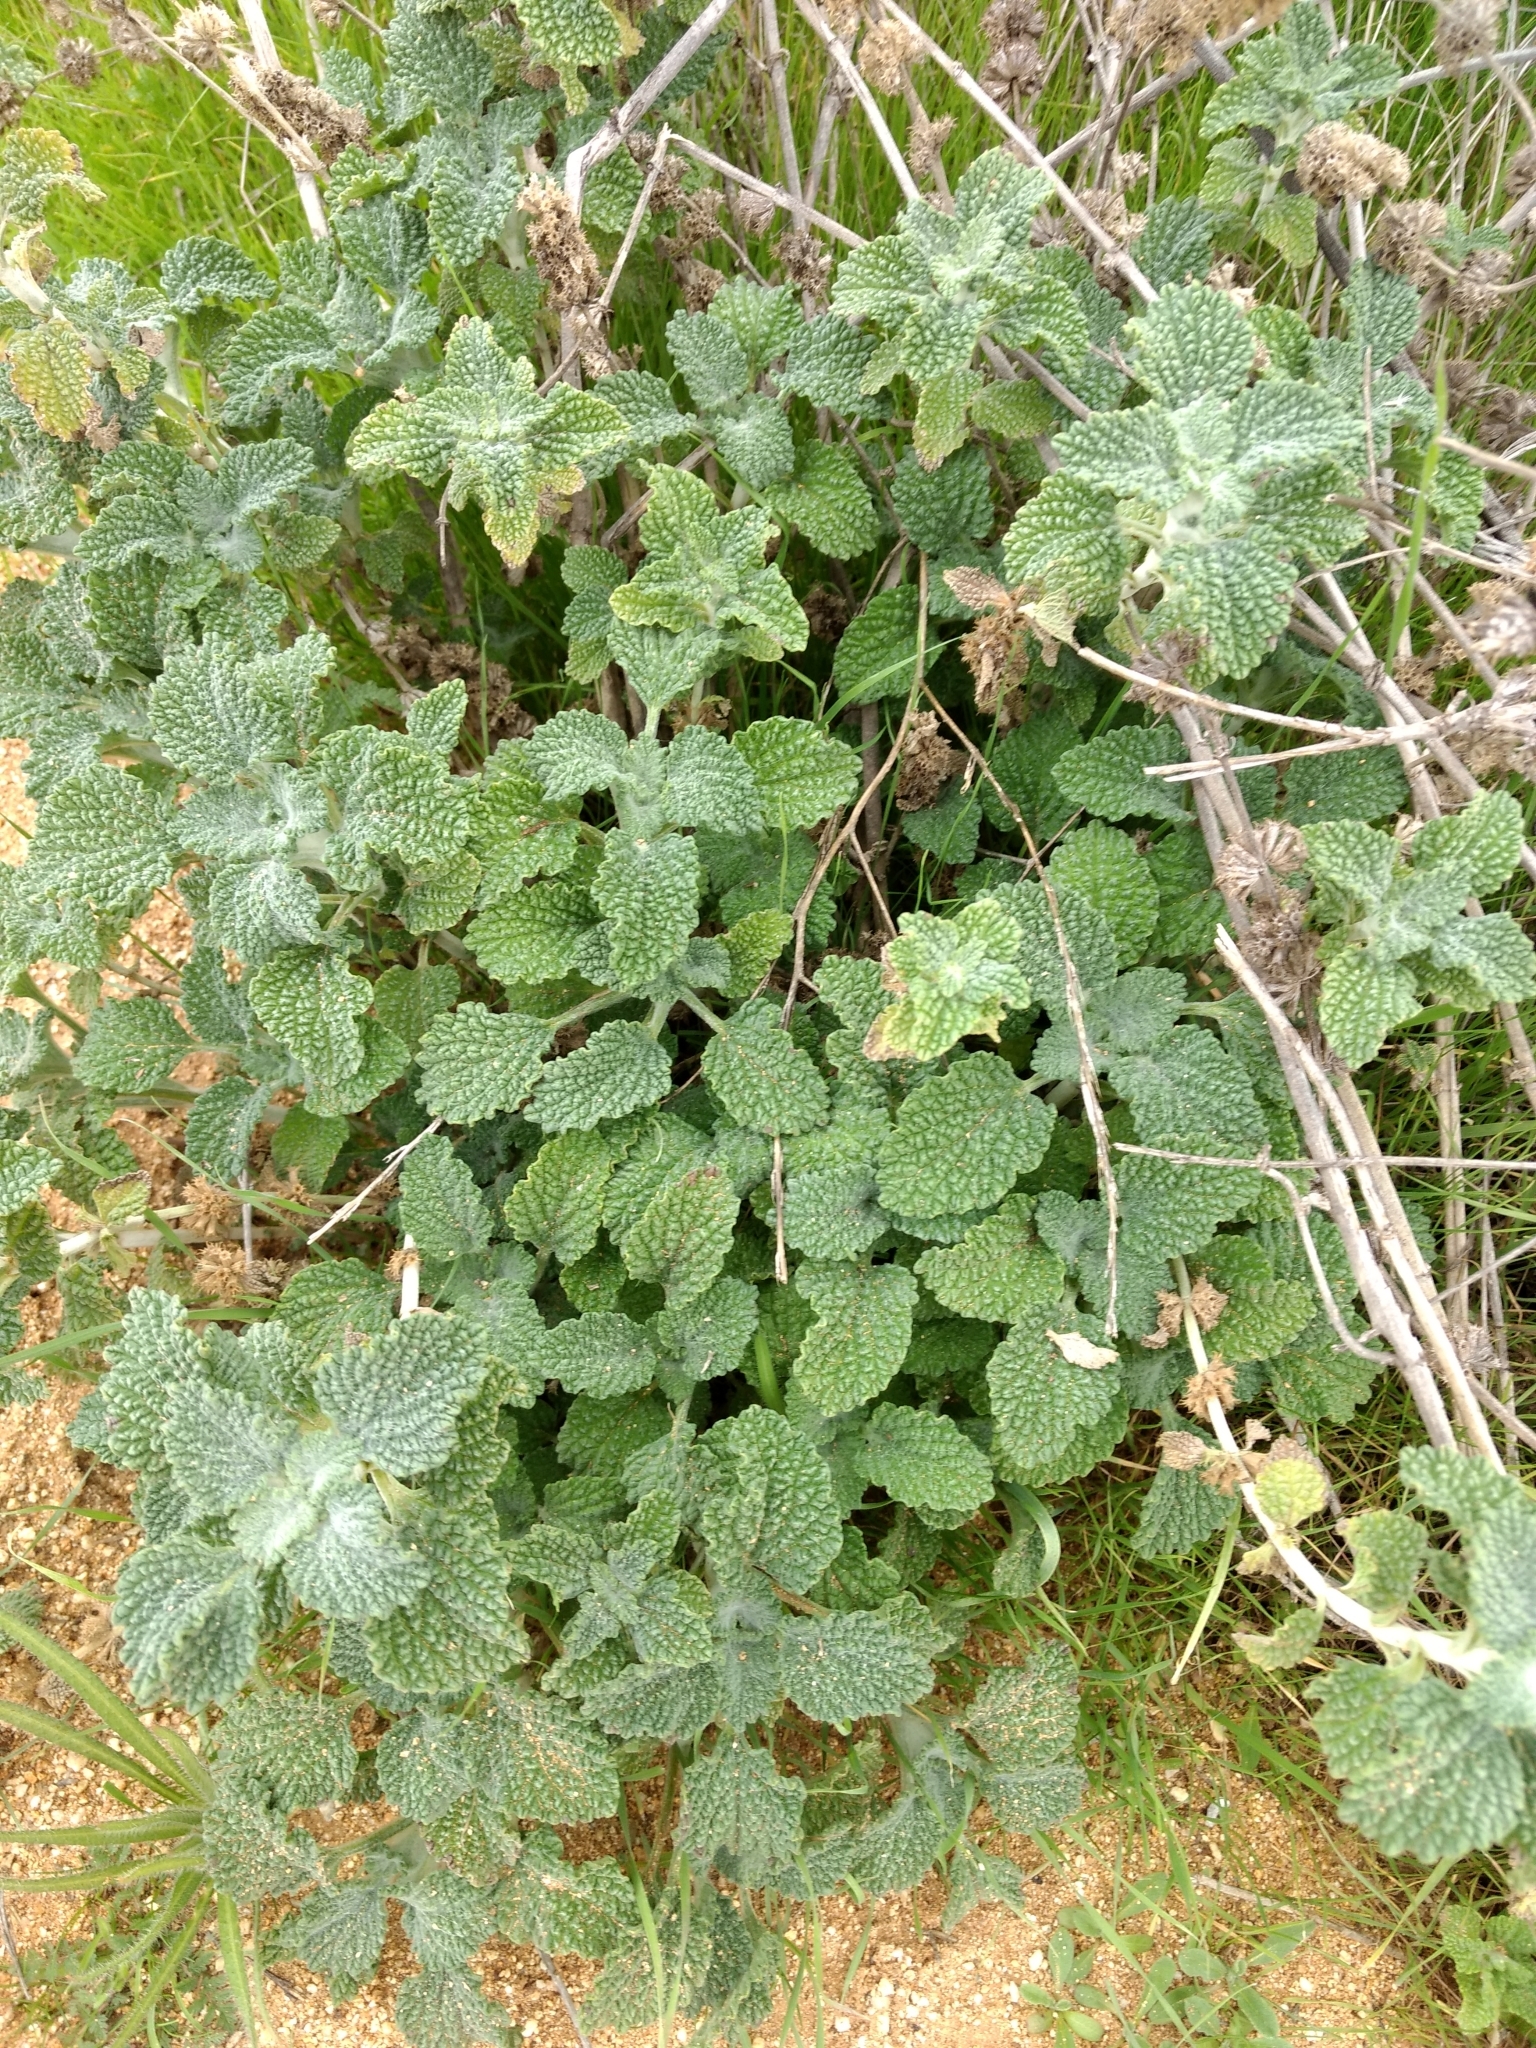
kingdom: Plantae
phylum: Tracheophyta
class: Magnoliopsida
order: Lamiales
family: Lamiaceae
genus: Marrubium
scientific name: Marrubium vulgare
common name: Horehound
